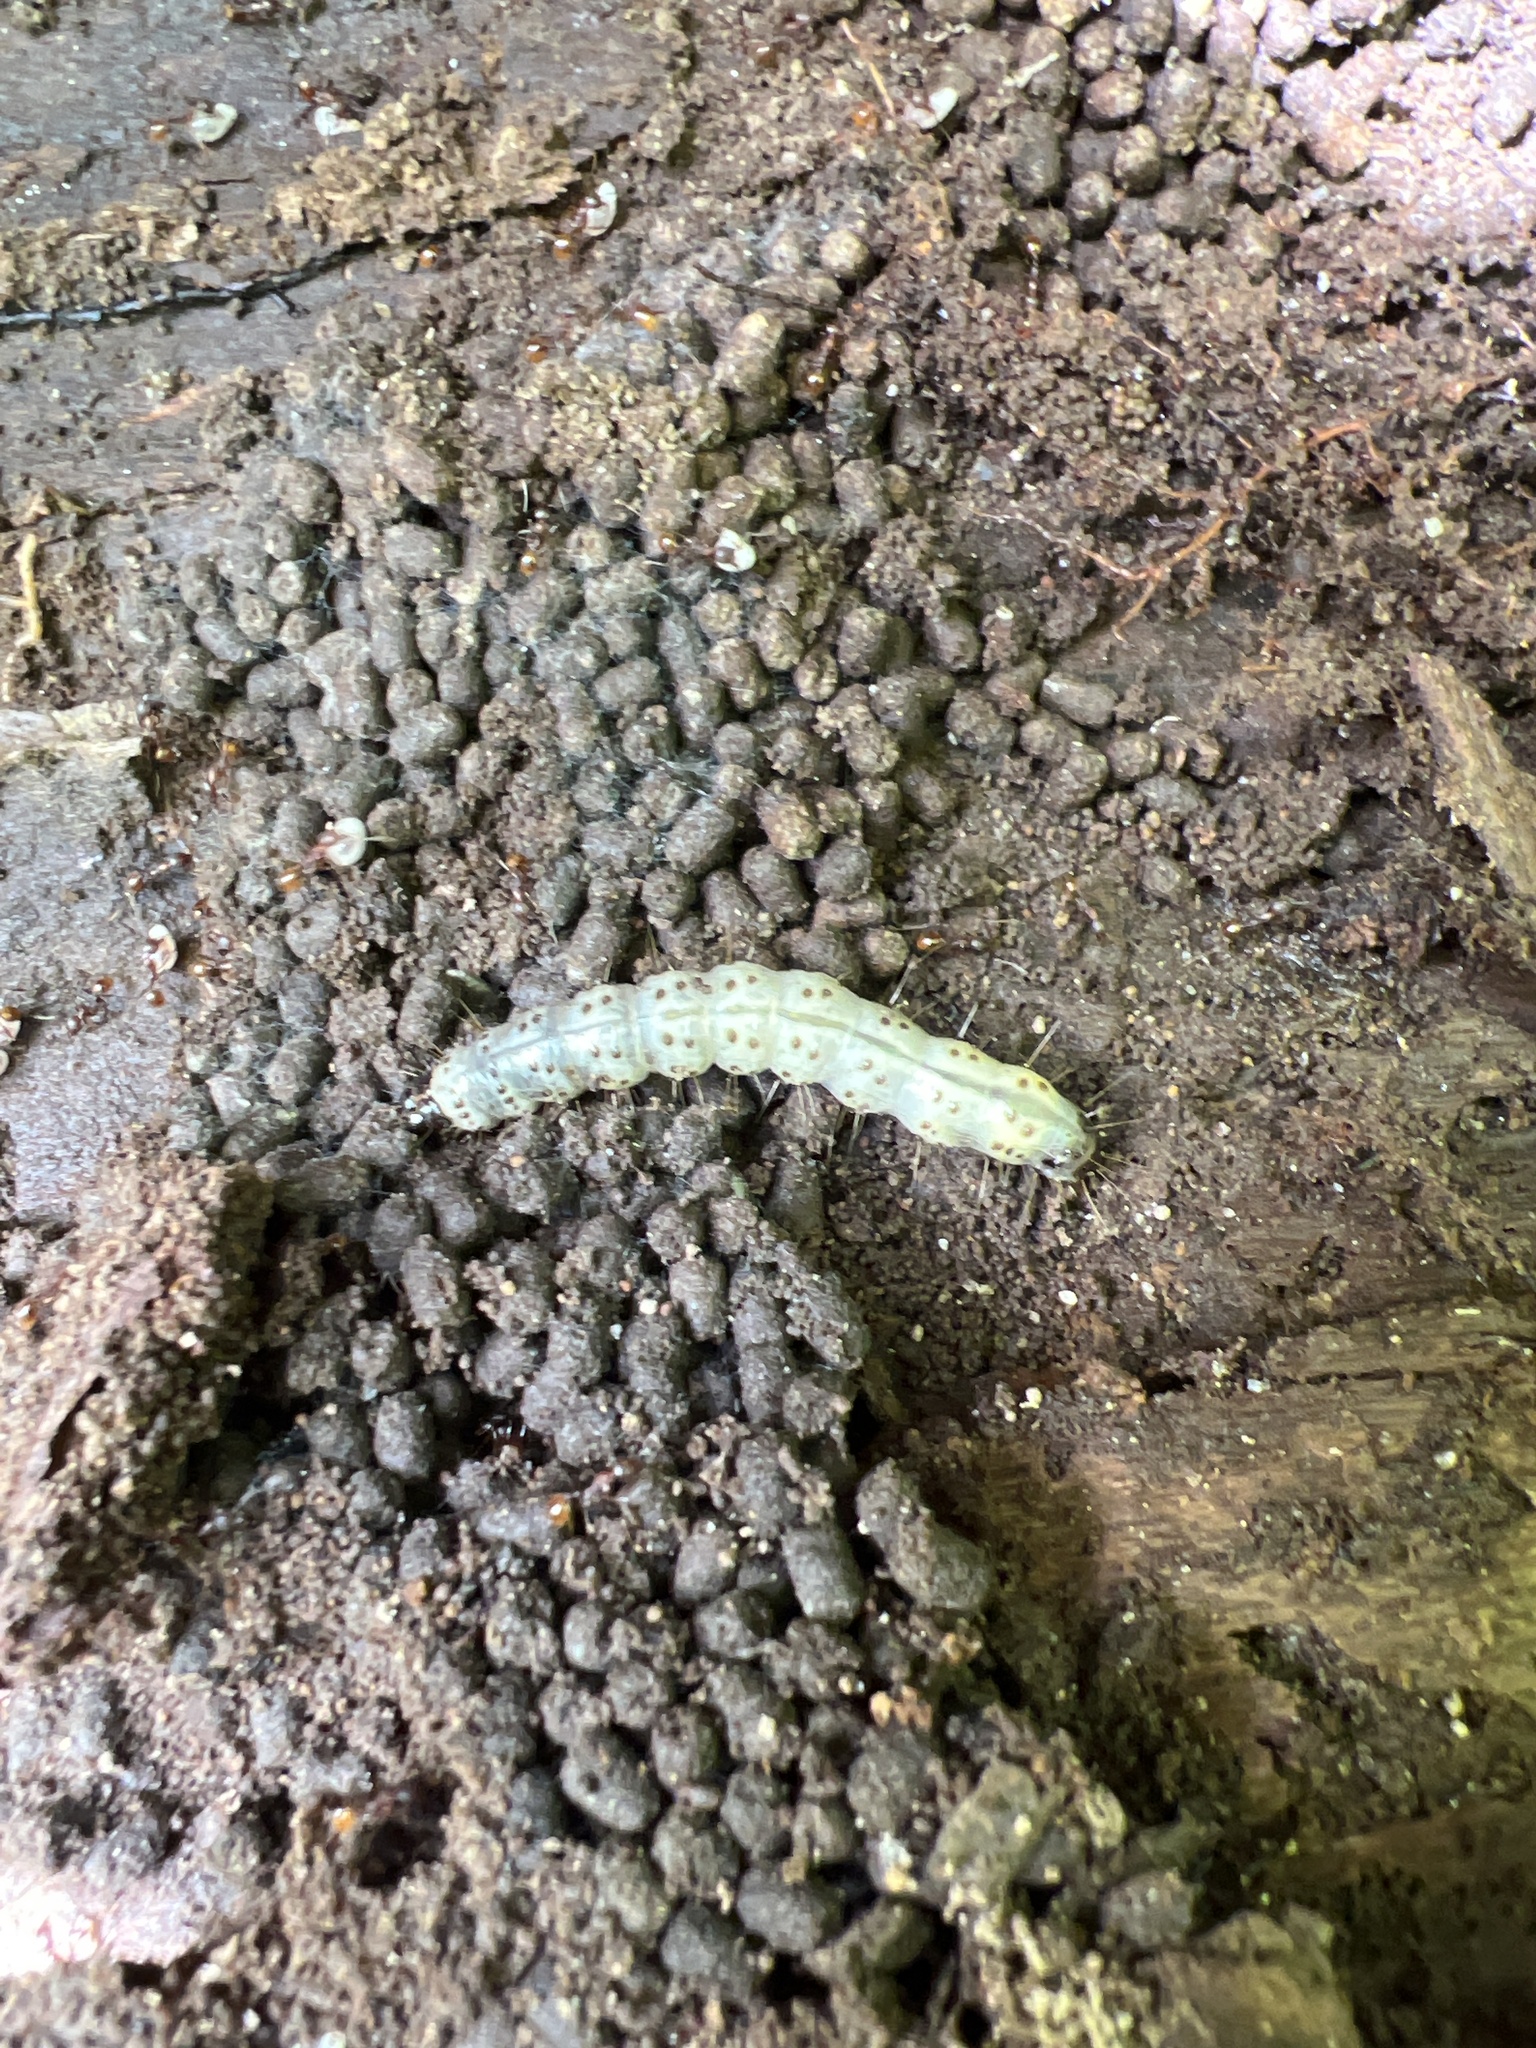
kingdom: Animalia
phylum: Arthropoda
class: Insecta
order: Lepidoptera
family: Erebidae
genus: Scolecocampa
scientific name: Scolecocampa liburna
